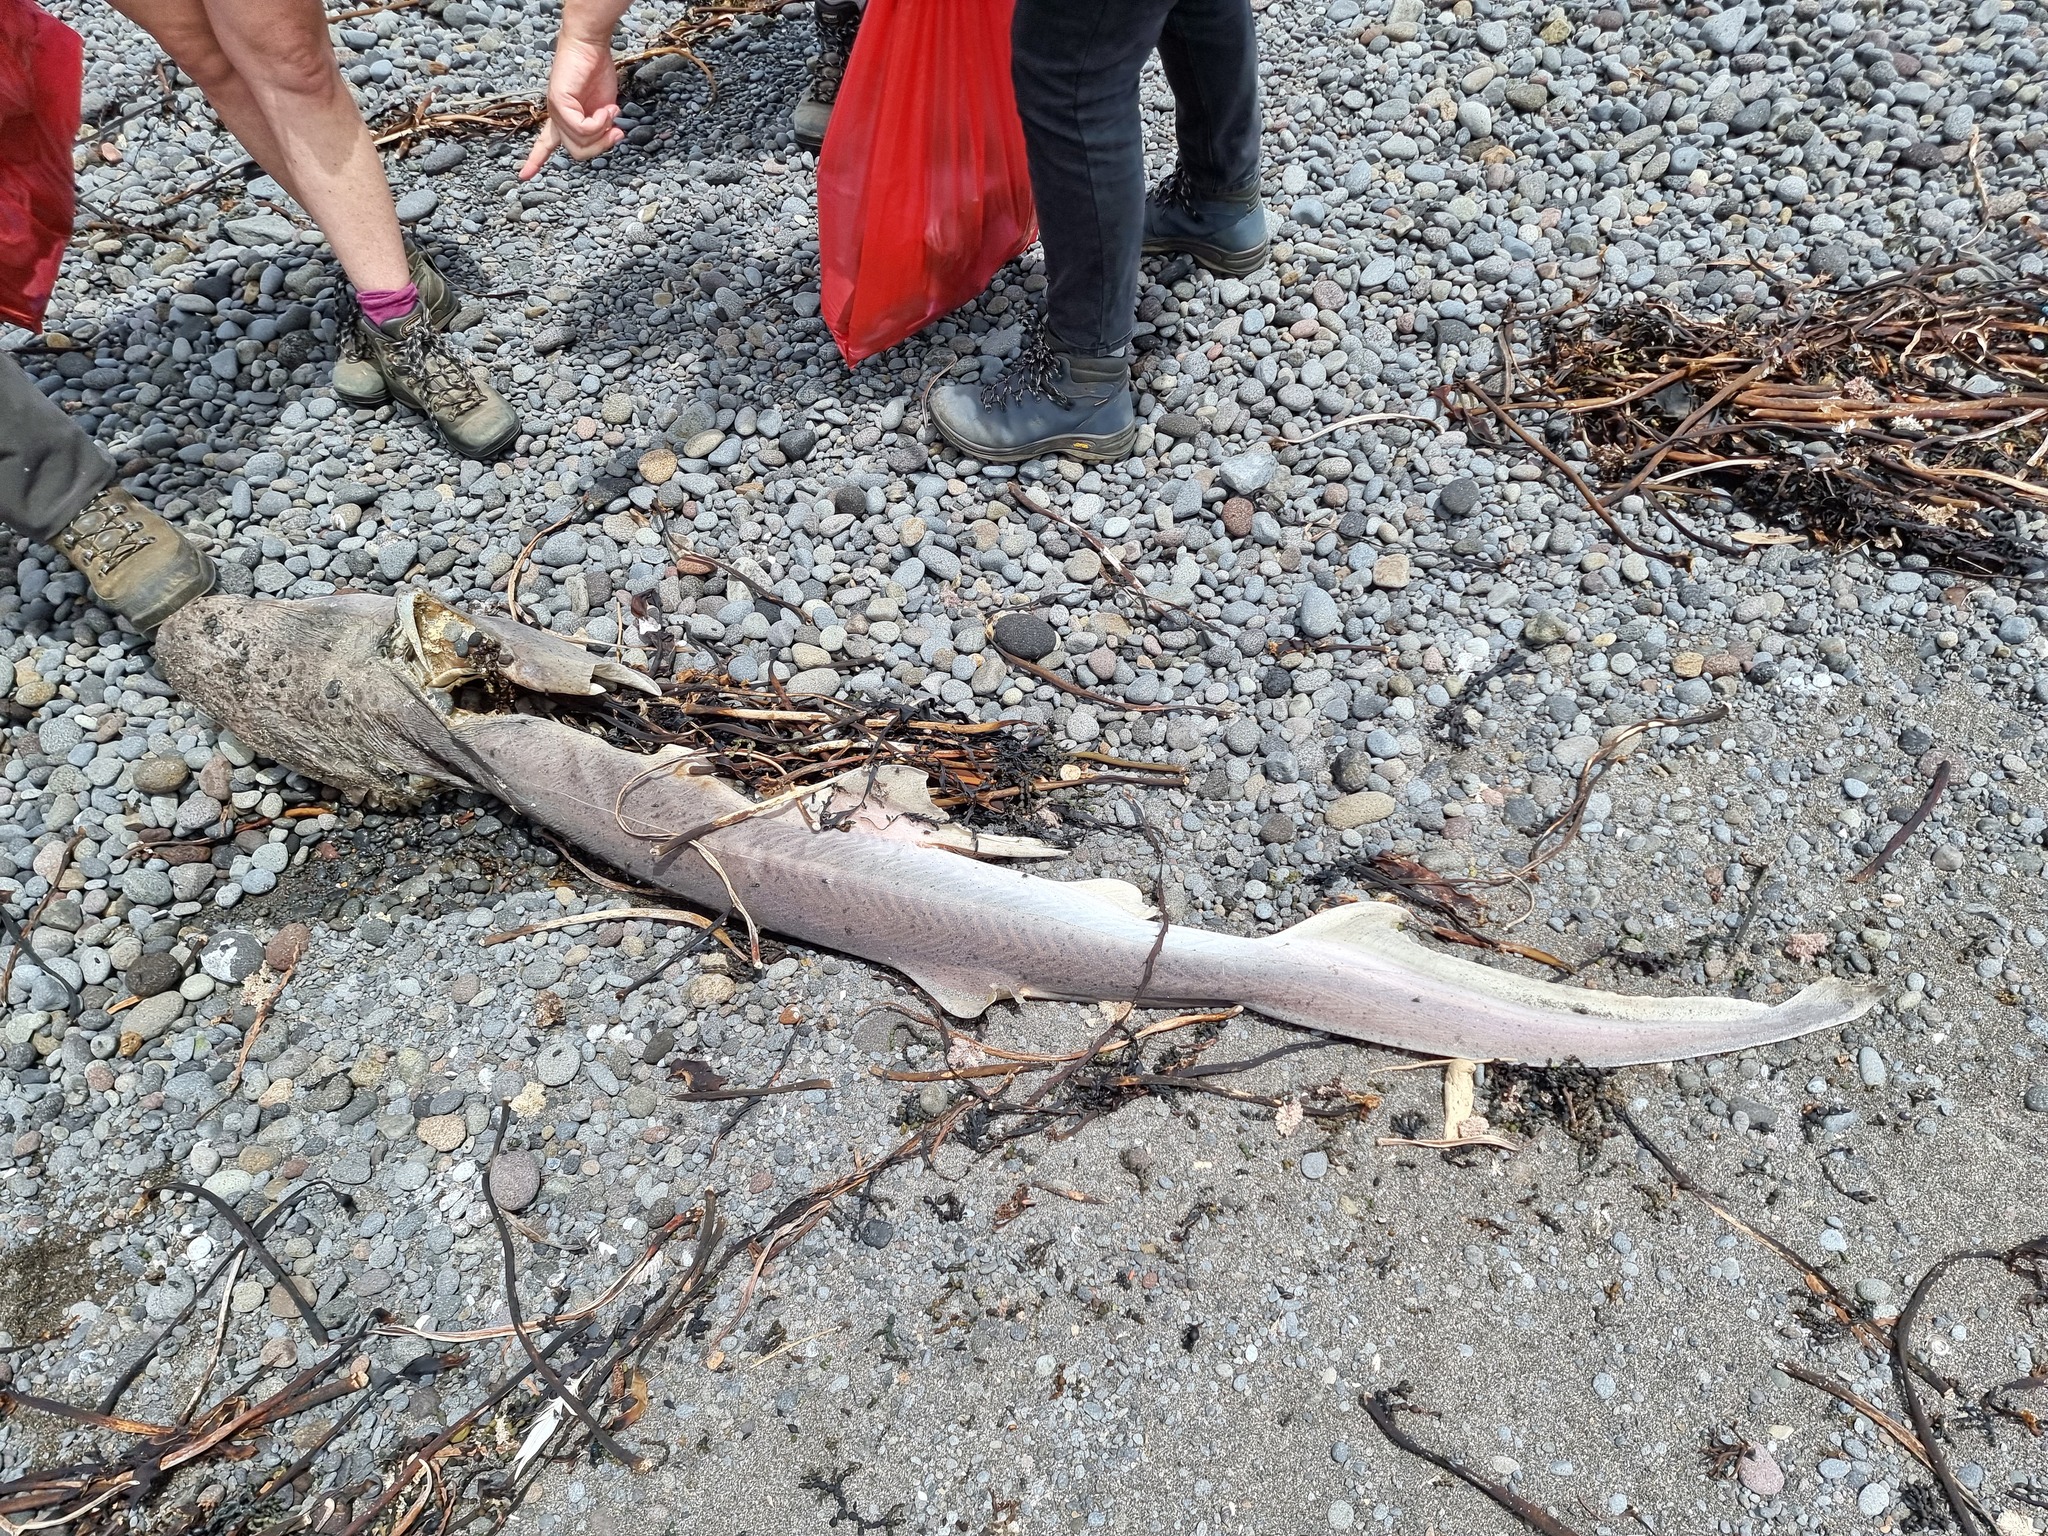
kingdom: Animalia
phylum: Chordata
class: Elasmobranchii
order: Hexanchiformes
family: Hexanchidae
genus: Notorynchus
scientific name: Notorynchus cepedianus
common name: Broadnose sevengill shark
